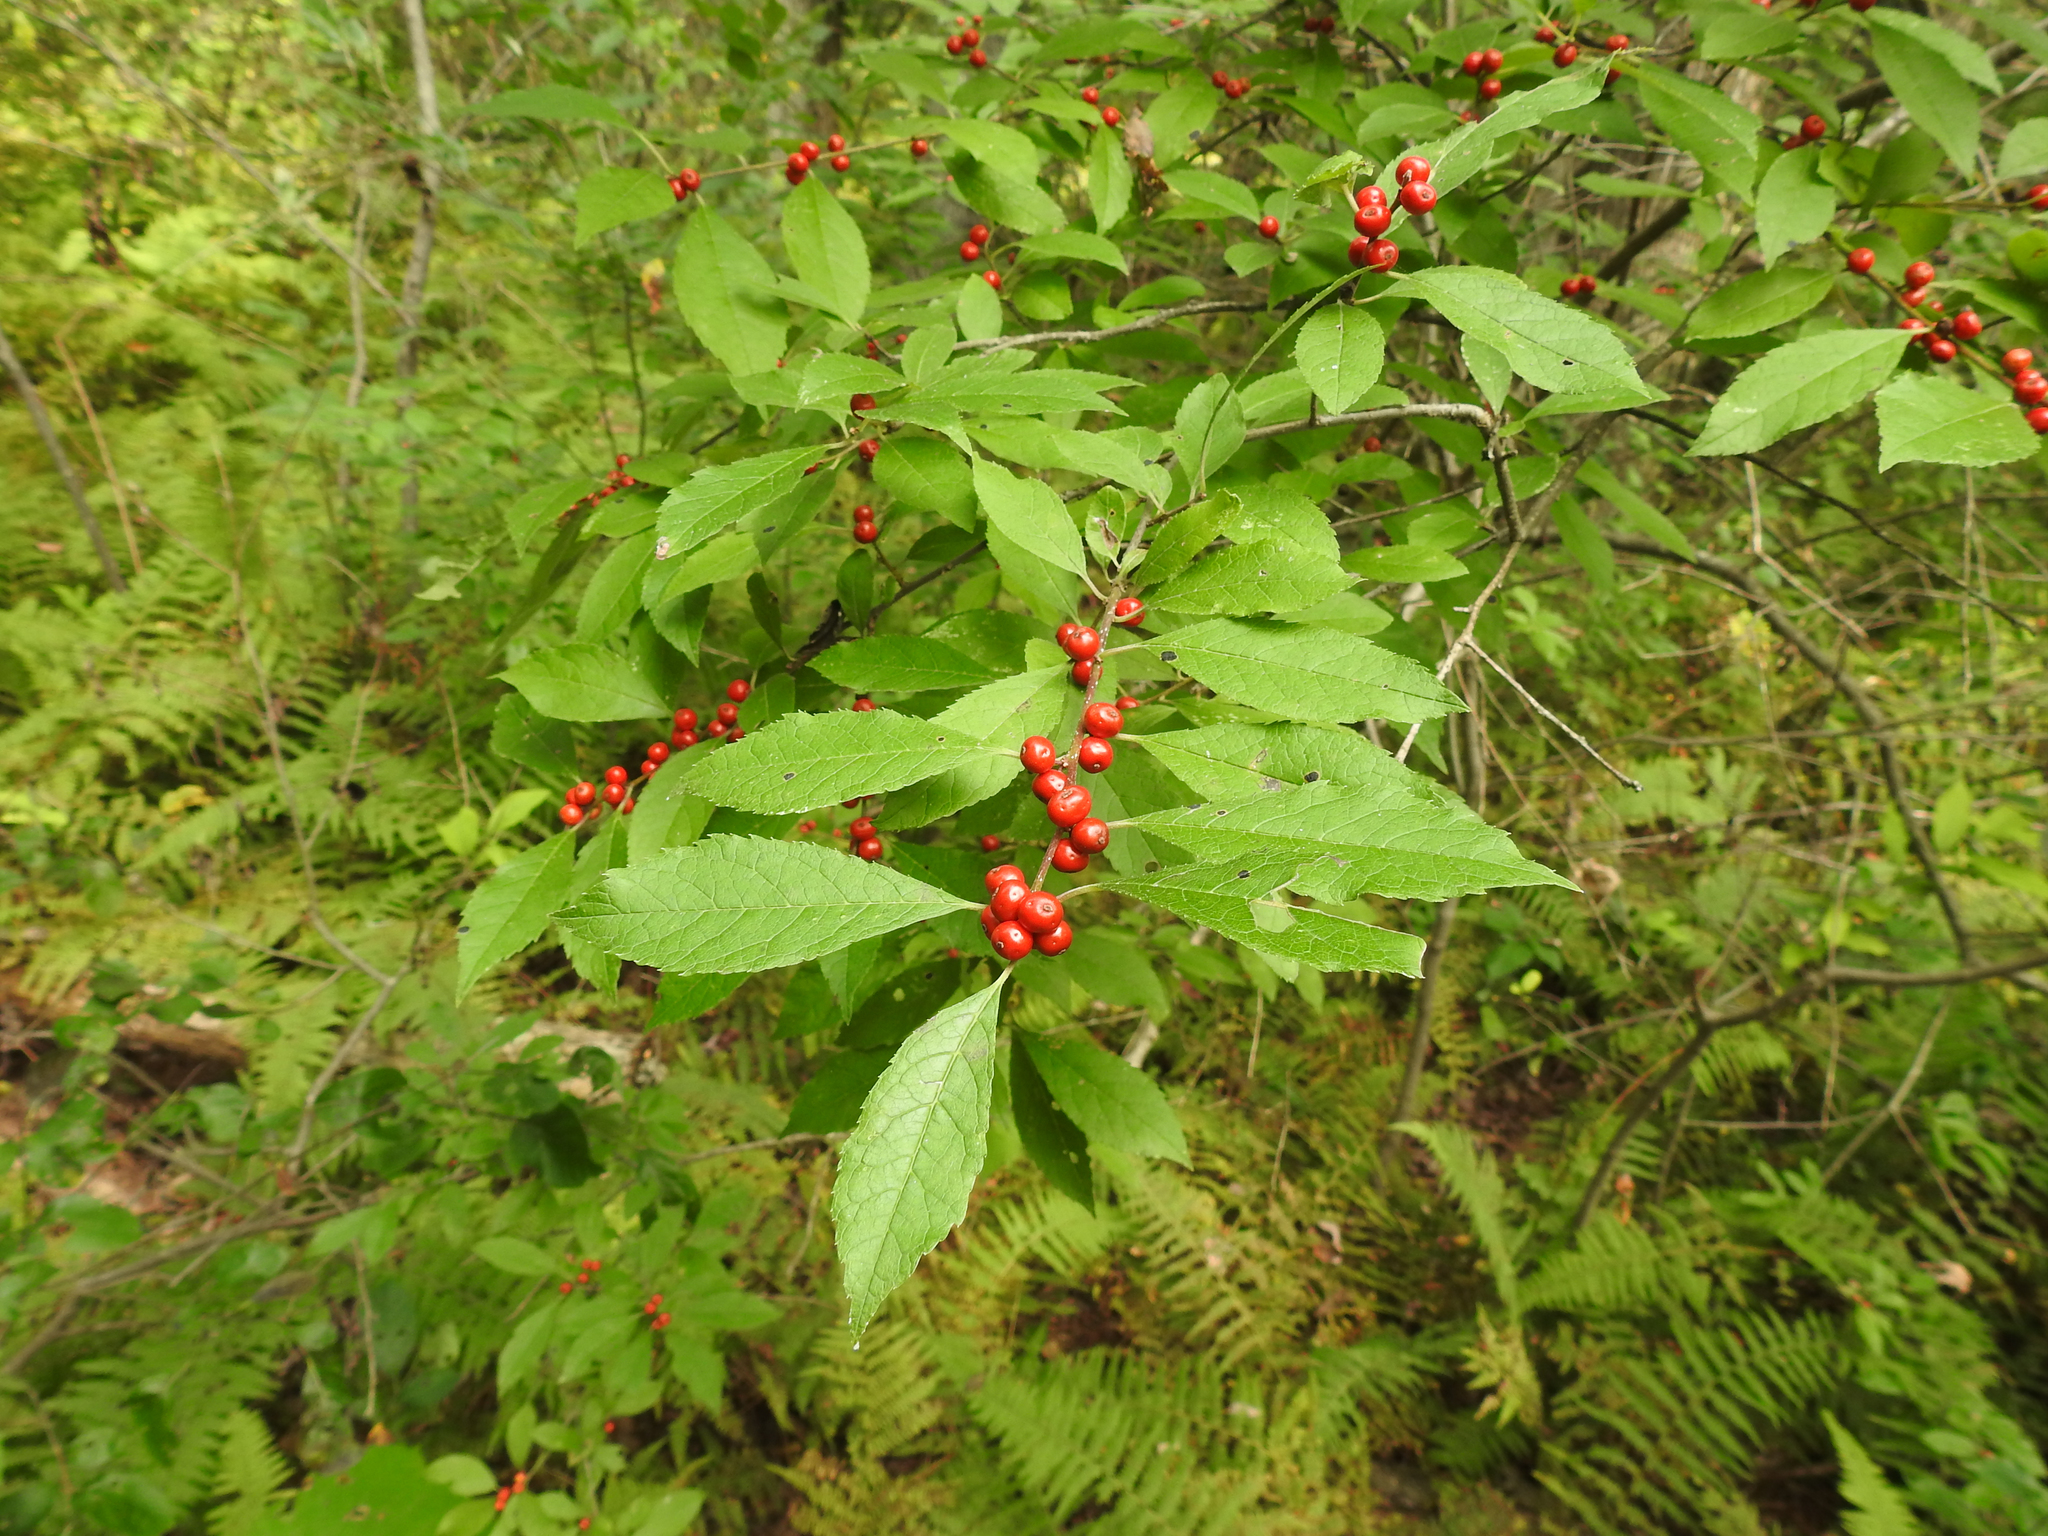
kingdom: Plantae
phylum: Tracheophyta
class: Magnoliopsida
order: Aquifoliales
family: Aquifoliaceae
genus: Ilex
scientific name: Ilex verticillata
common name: Virginia winterberry
